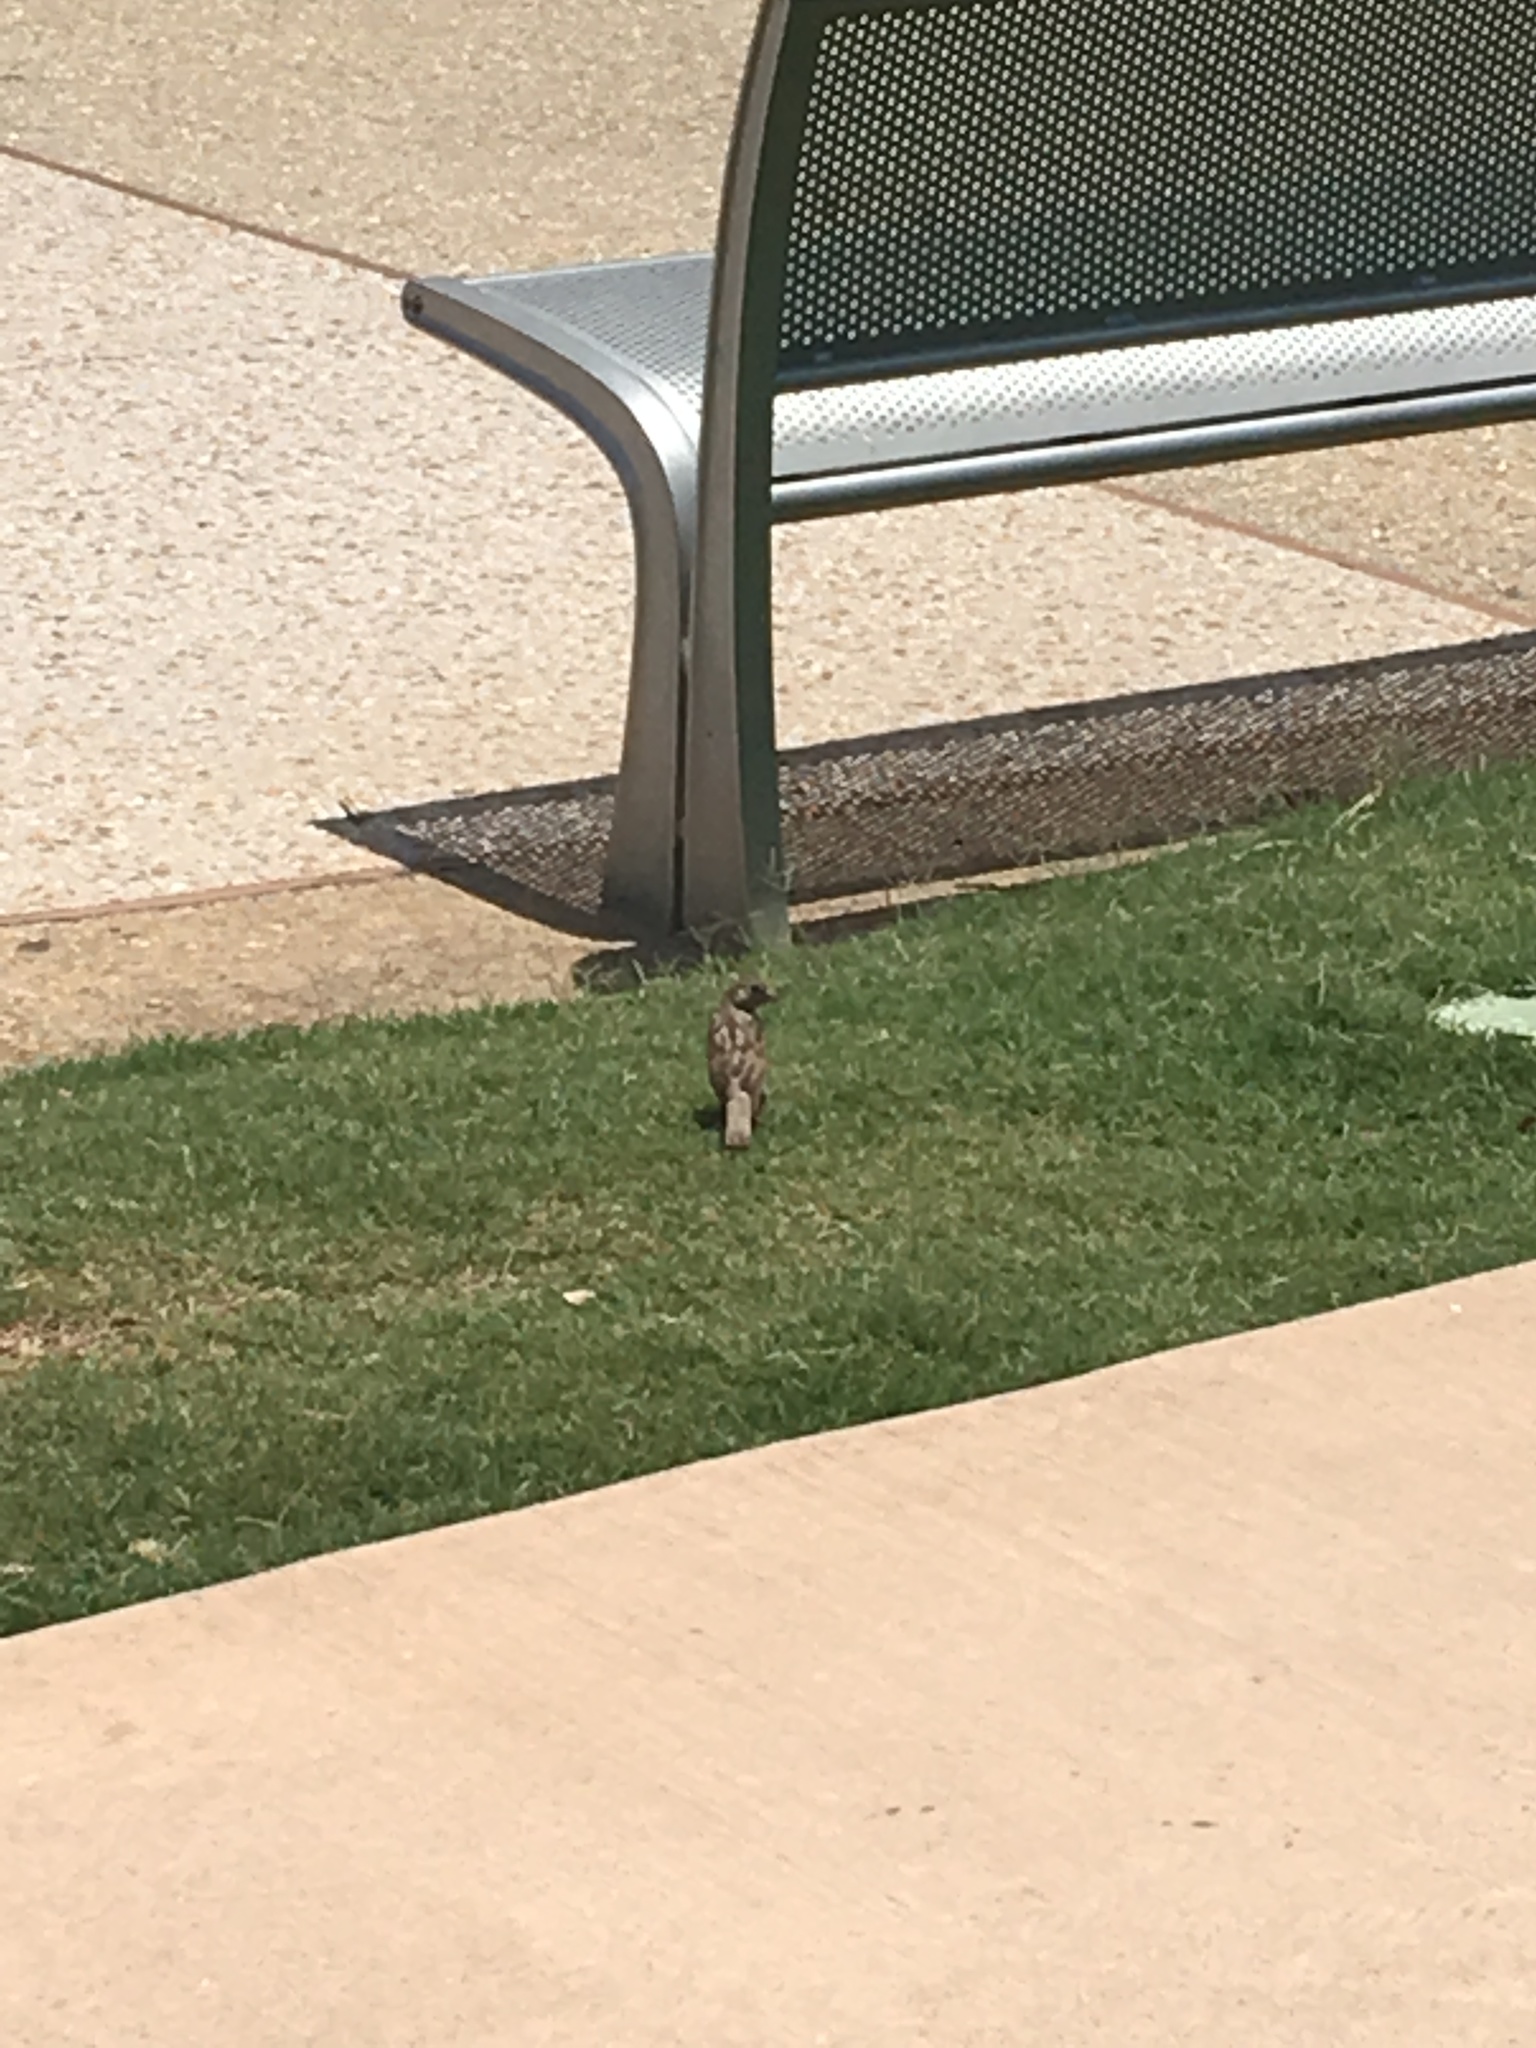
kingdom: Animalia
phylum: Chordata
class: Aves
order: Passeriformes
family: Passeridae
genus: Passer
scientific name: Passer domesticus
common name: House sparrow
